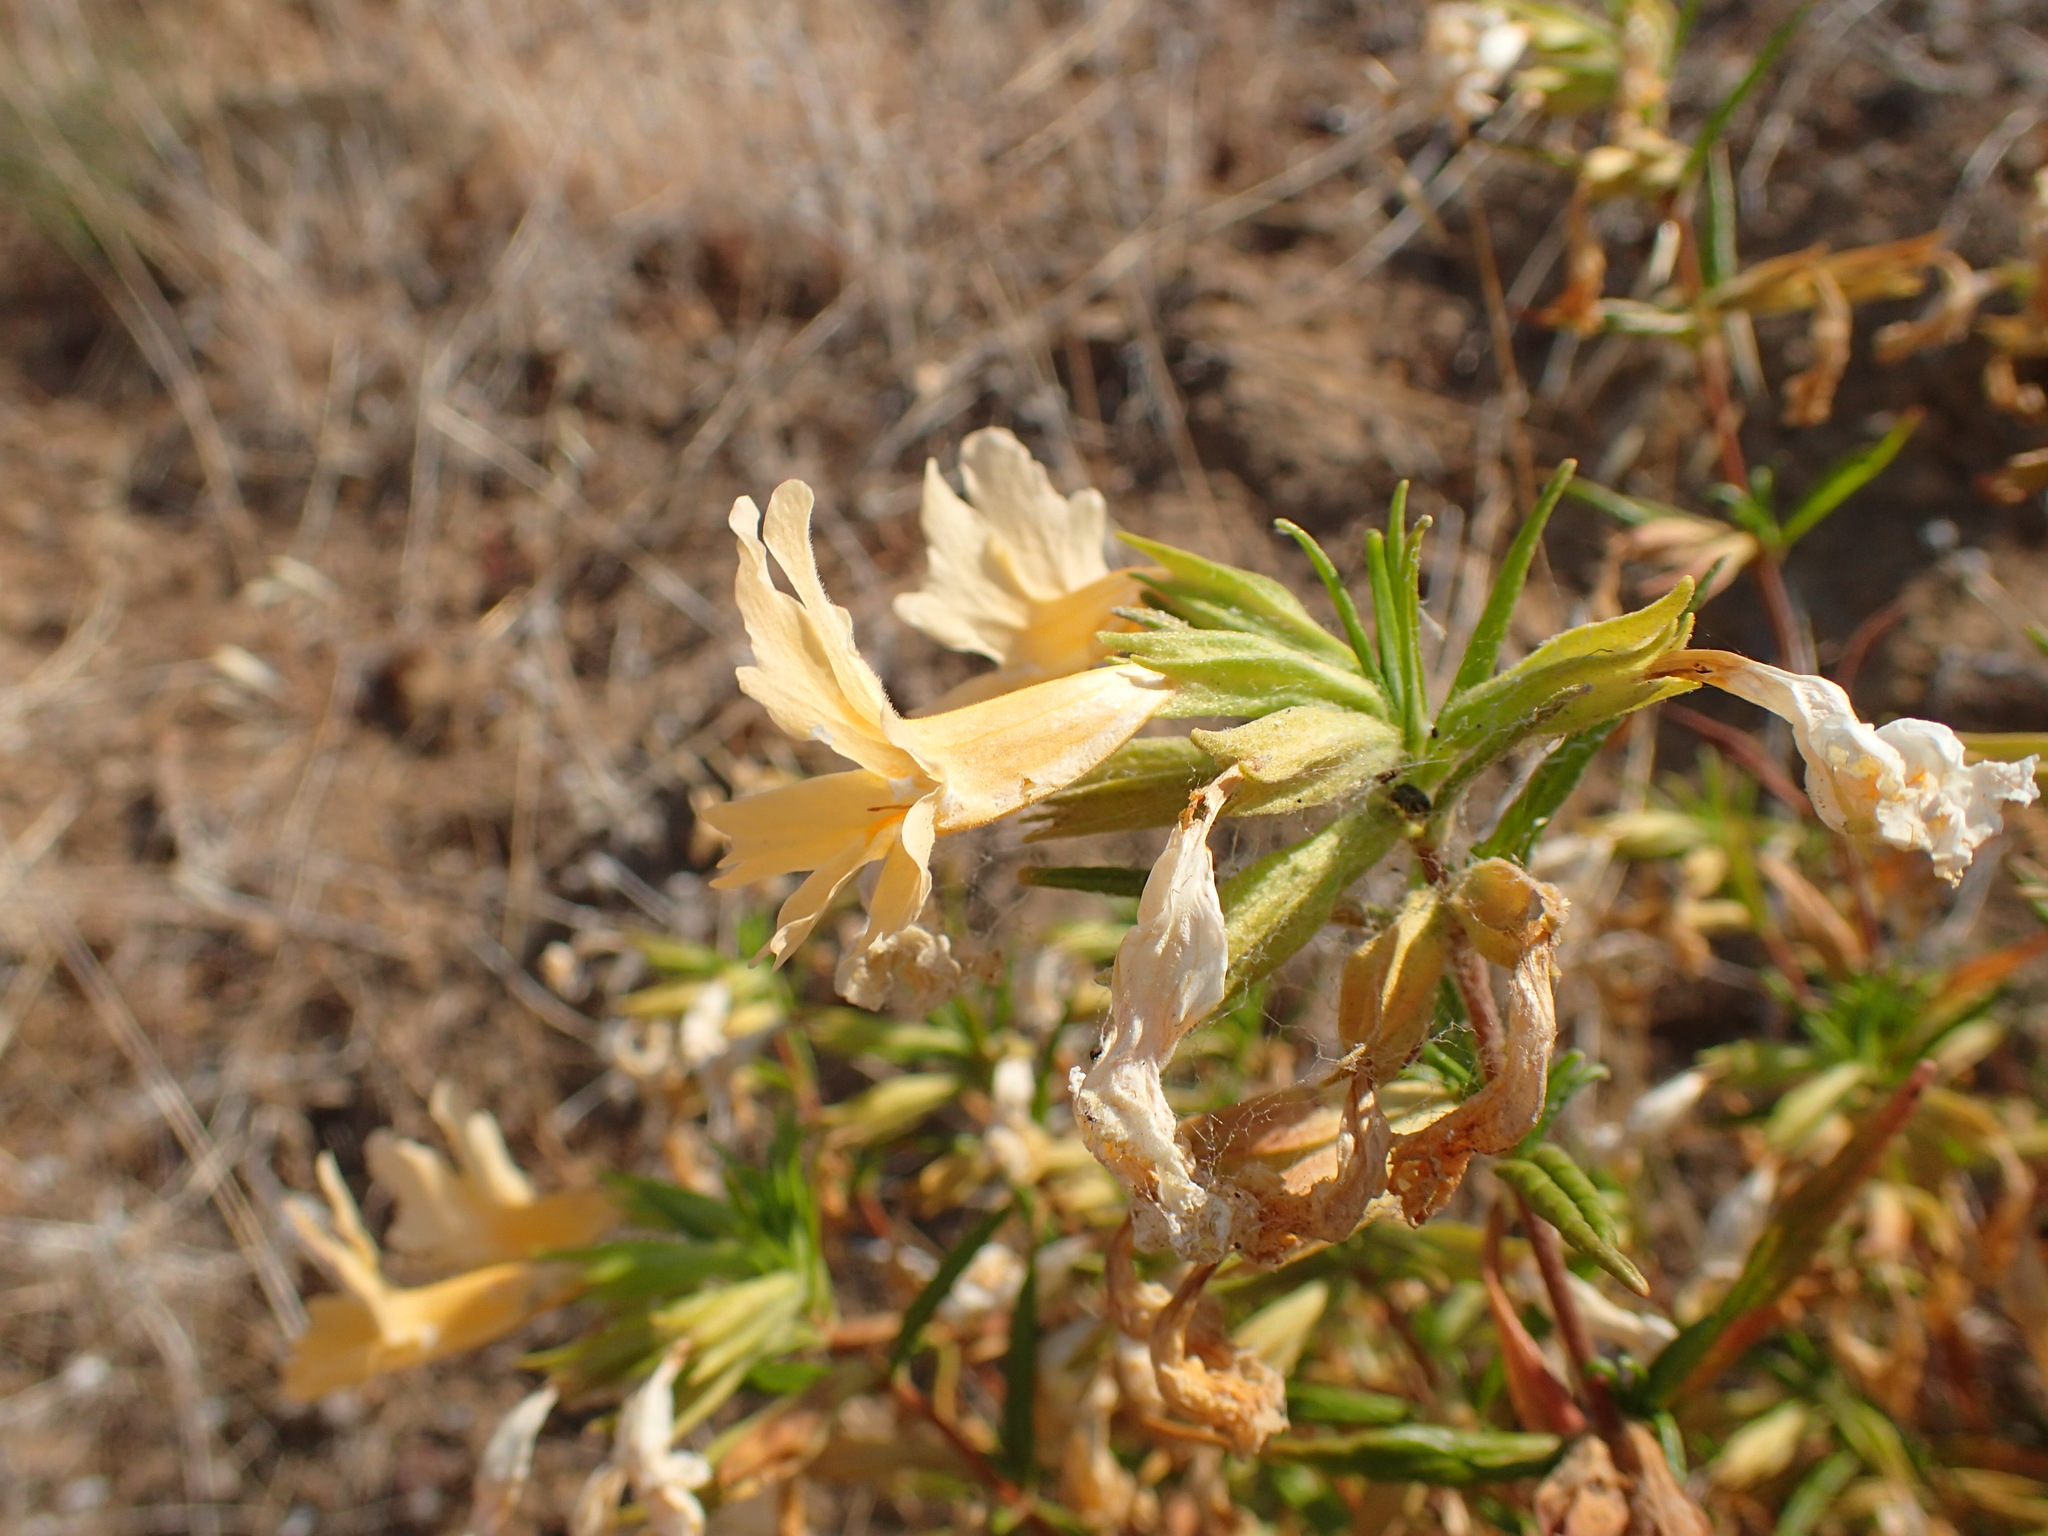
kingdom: Plantae
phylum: Tracheophyta
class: Magnoliopsida
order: Lamiales
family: Phrymaceae
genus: Diplacus
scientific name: Diplacus longiflorus
